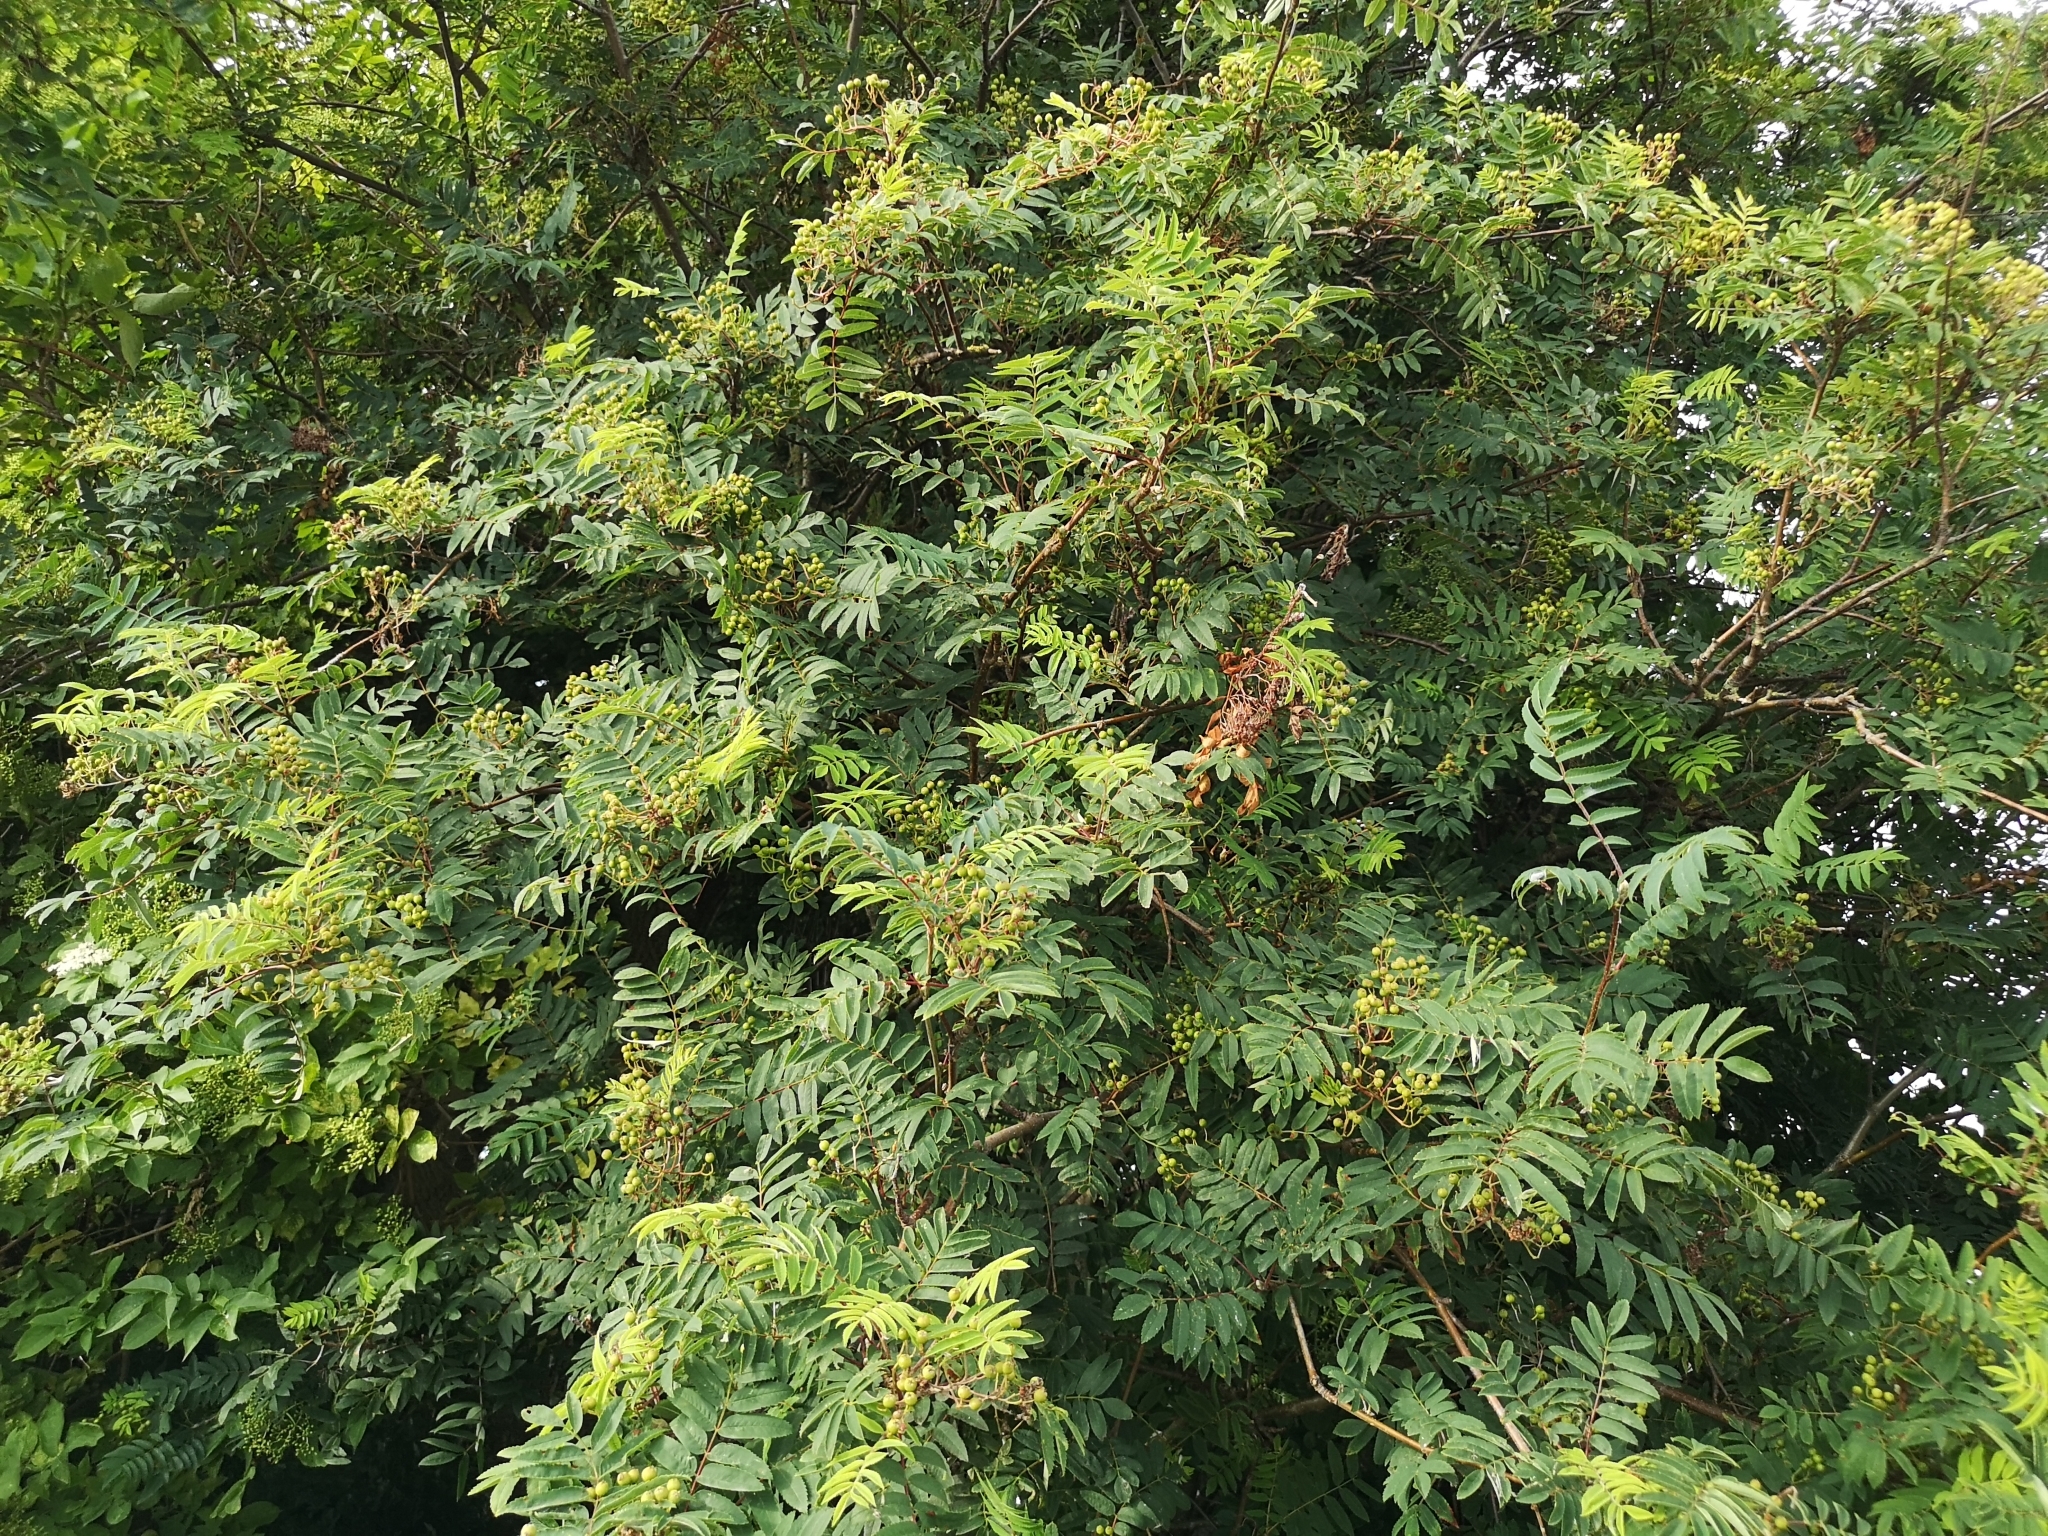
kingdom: Plantae
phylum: Tracheophyta
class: Magnoliopsida
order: Rosales
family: Rosaceae
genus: Sorbus
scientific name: Sorbus aucuparia
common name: Rowan
